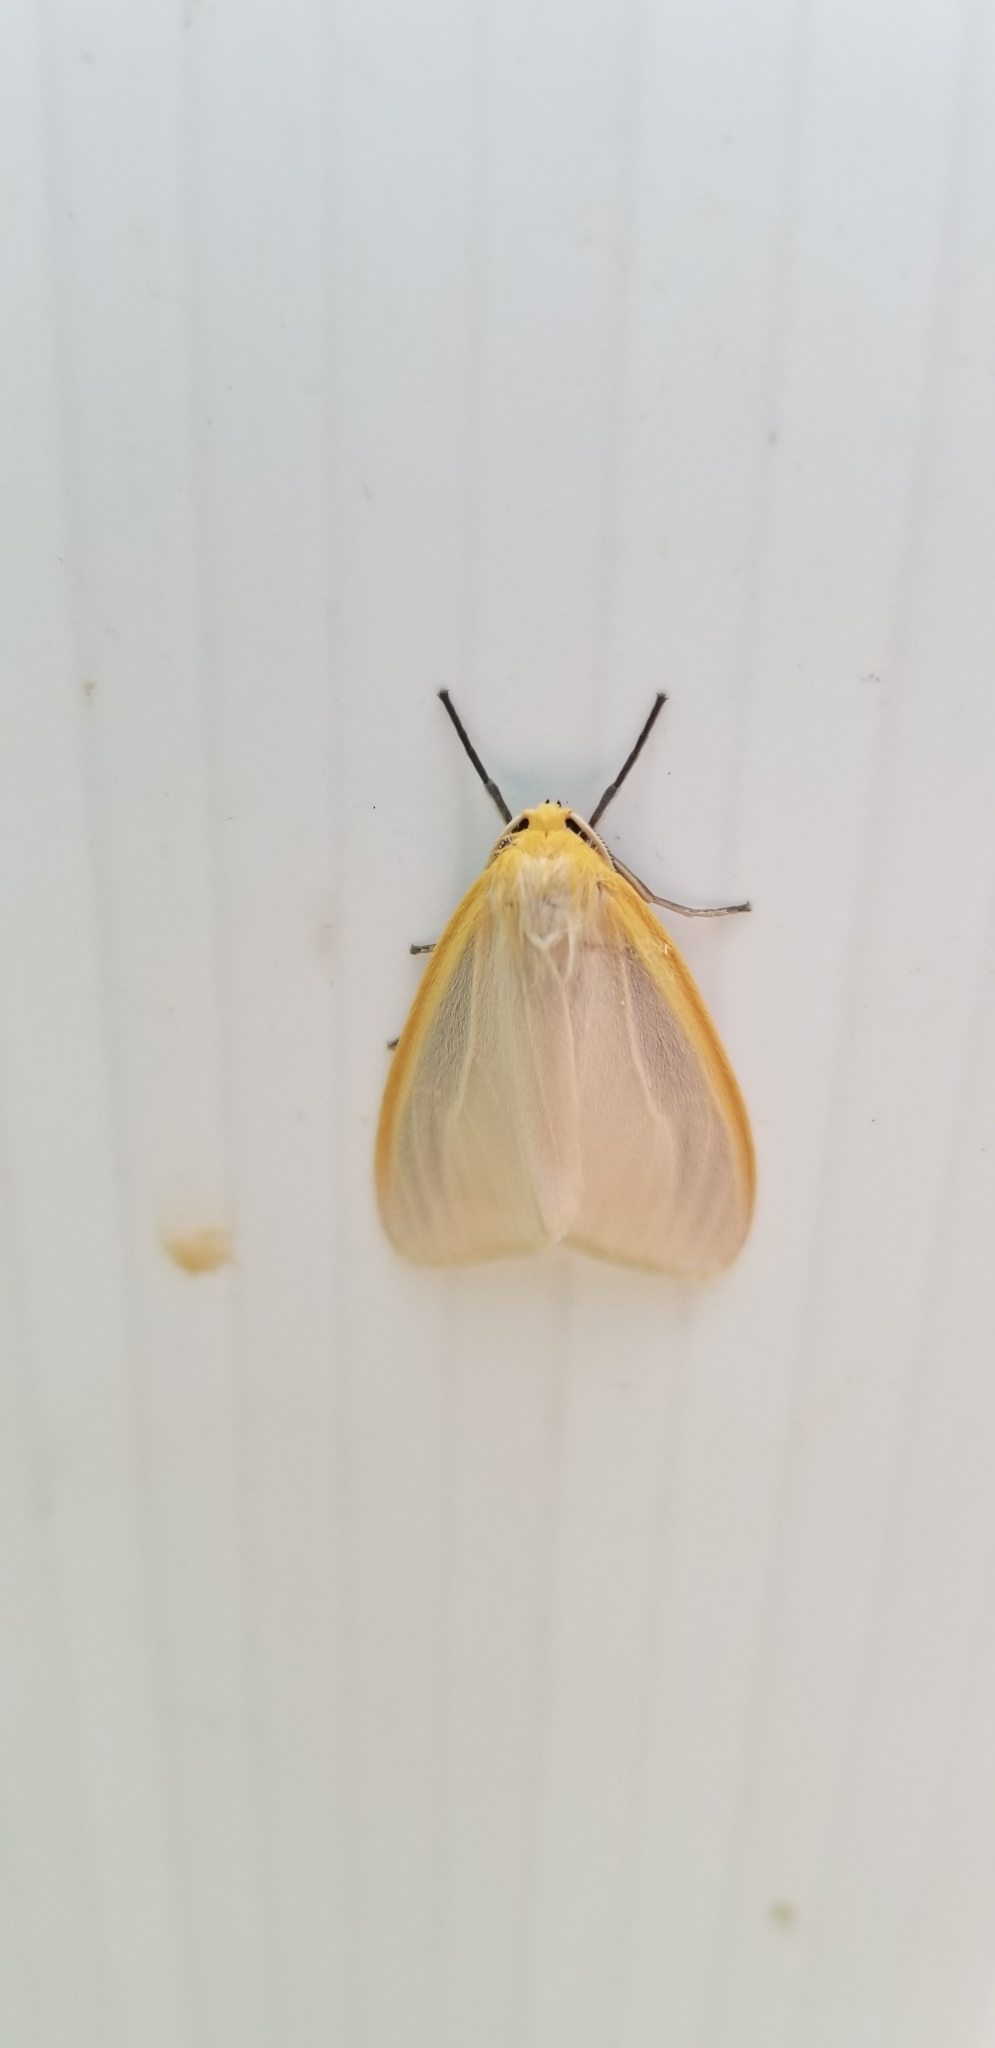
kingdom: Animalia
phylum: Arthropoda
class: Insecta
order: Lepidoptera
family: Erebidae
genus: Cycnia
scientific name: Cycnia tenera
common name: Delicate cycnia moth
